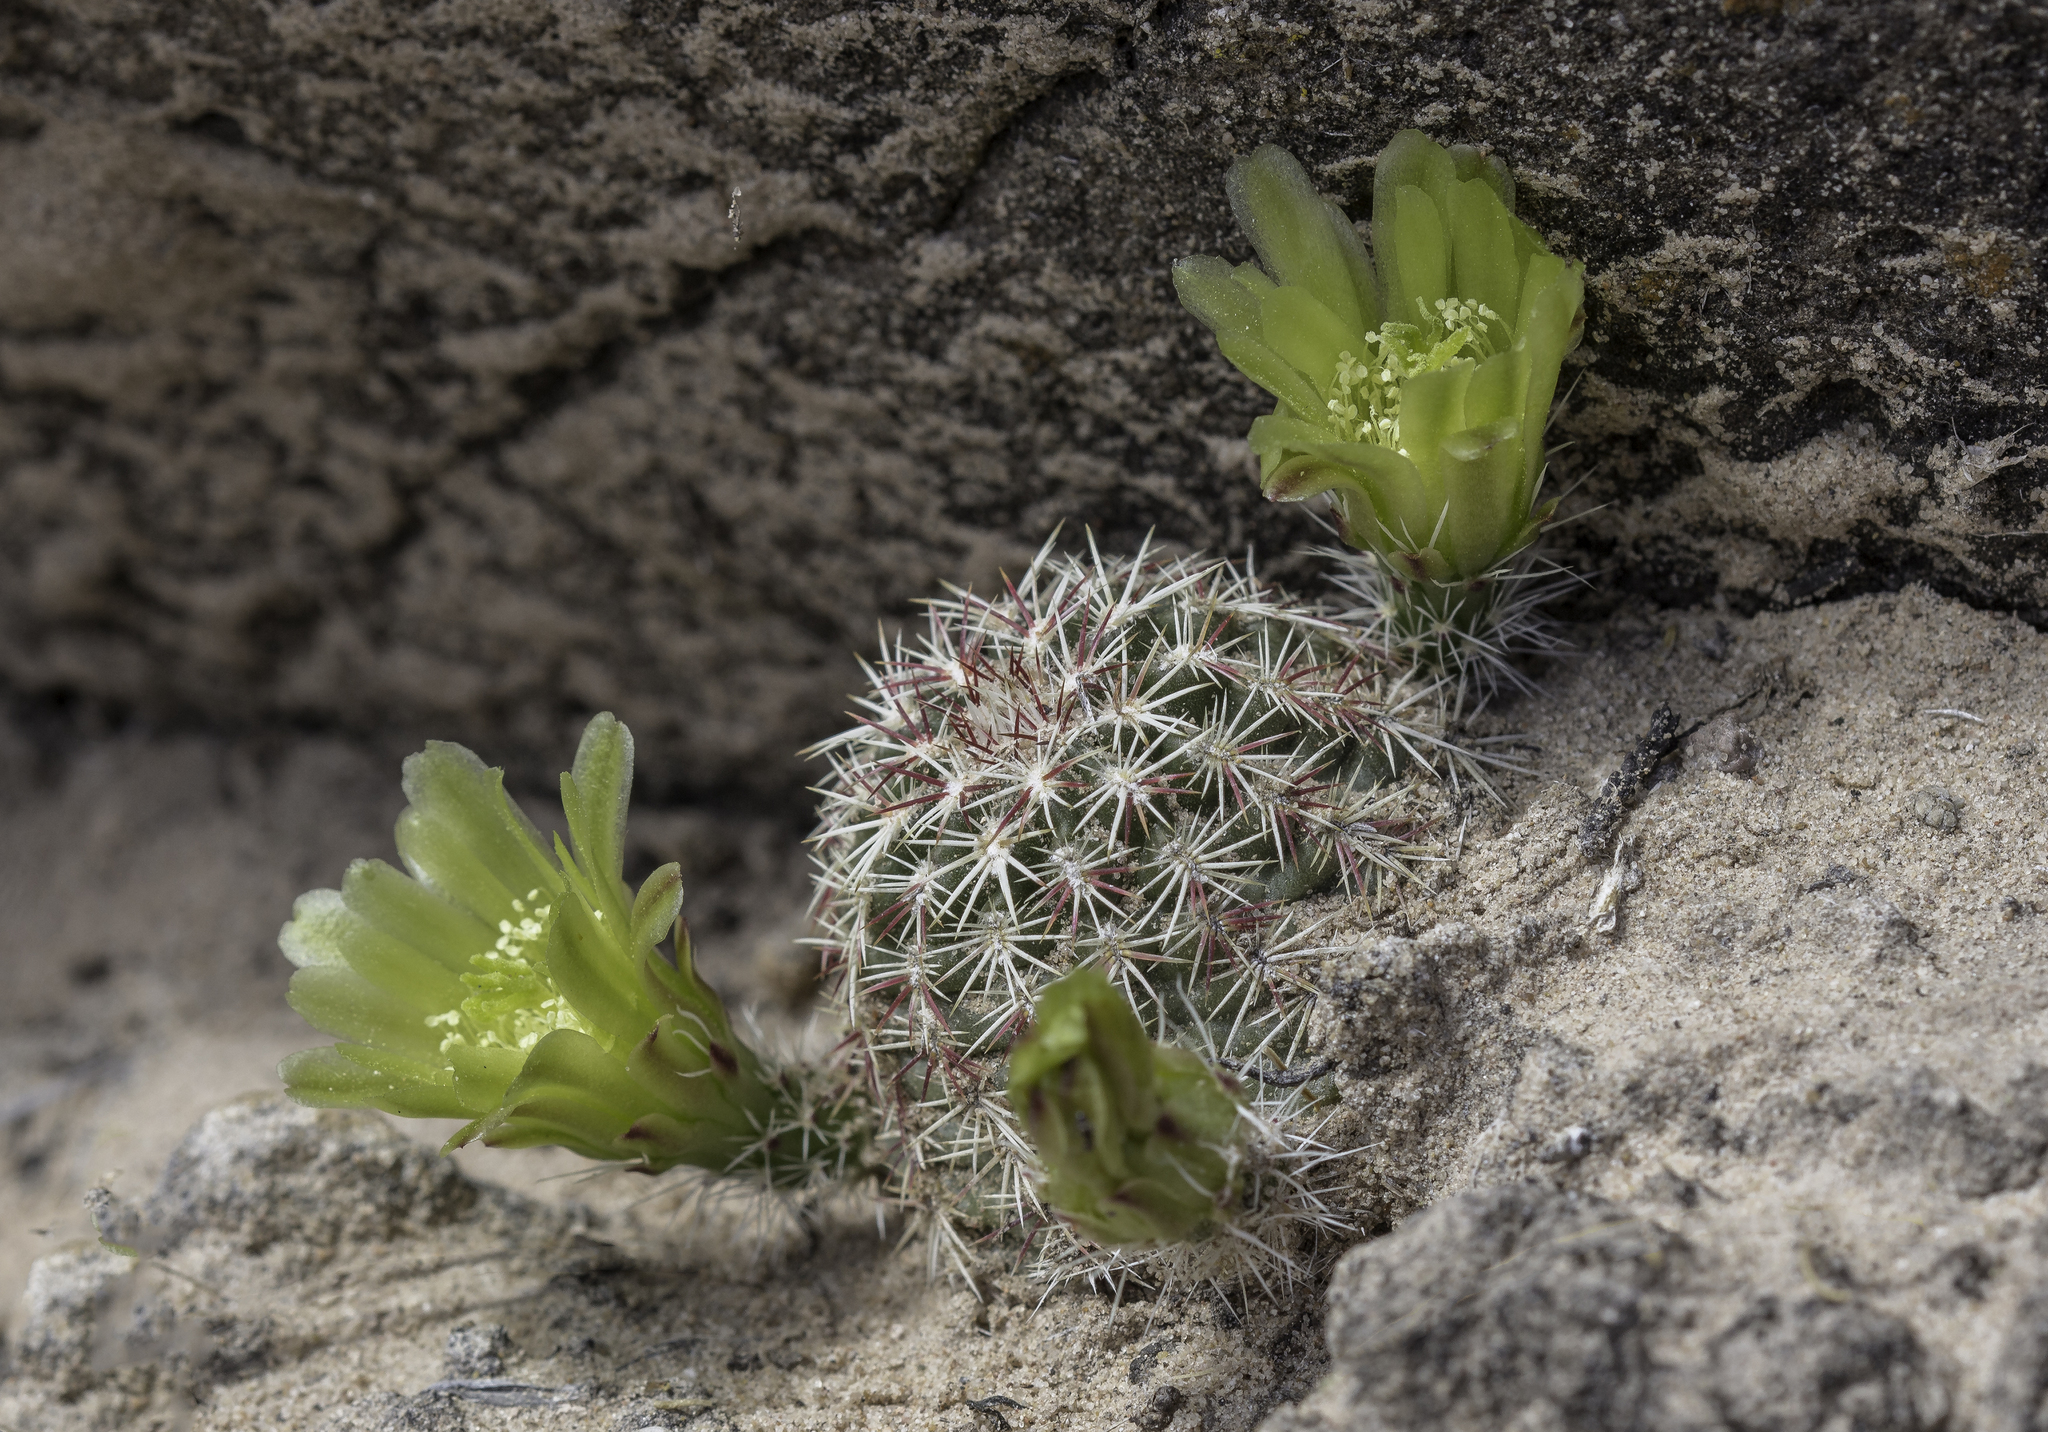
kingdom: Plantae
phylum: Tracheophyta
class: Magnoliopsida
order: Caryophyllales
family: Cactaceae
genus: Echinocereus
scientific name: Echinocereus viridiflorus
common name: Nylon hedgehog cactus
